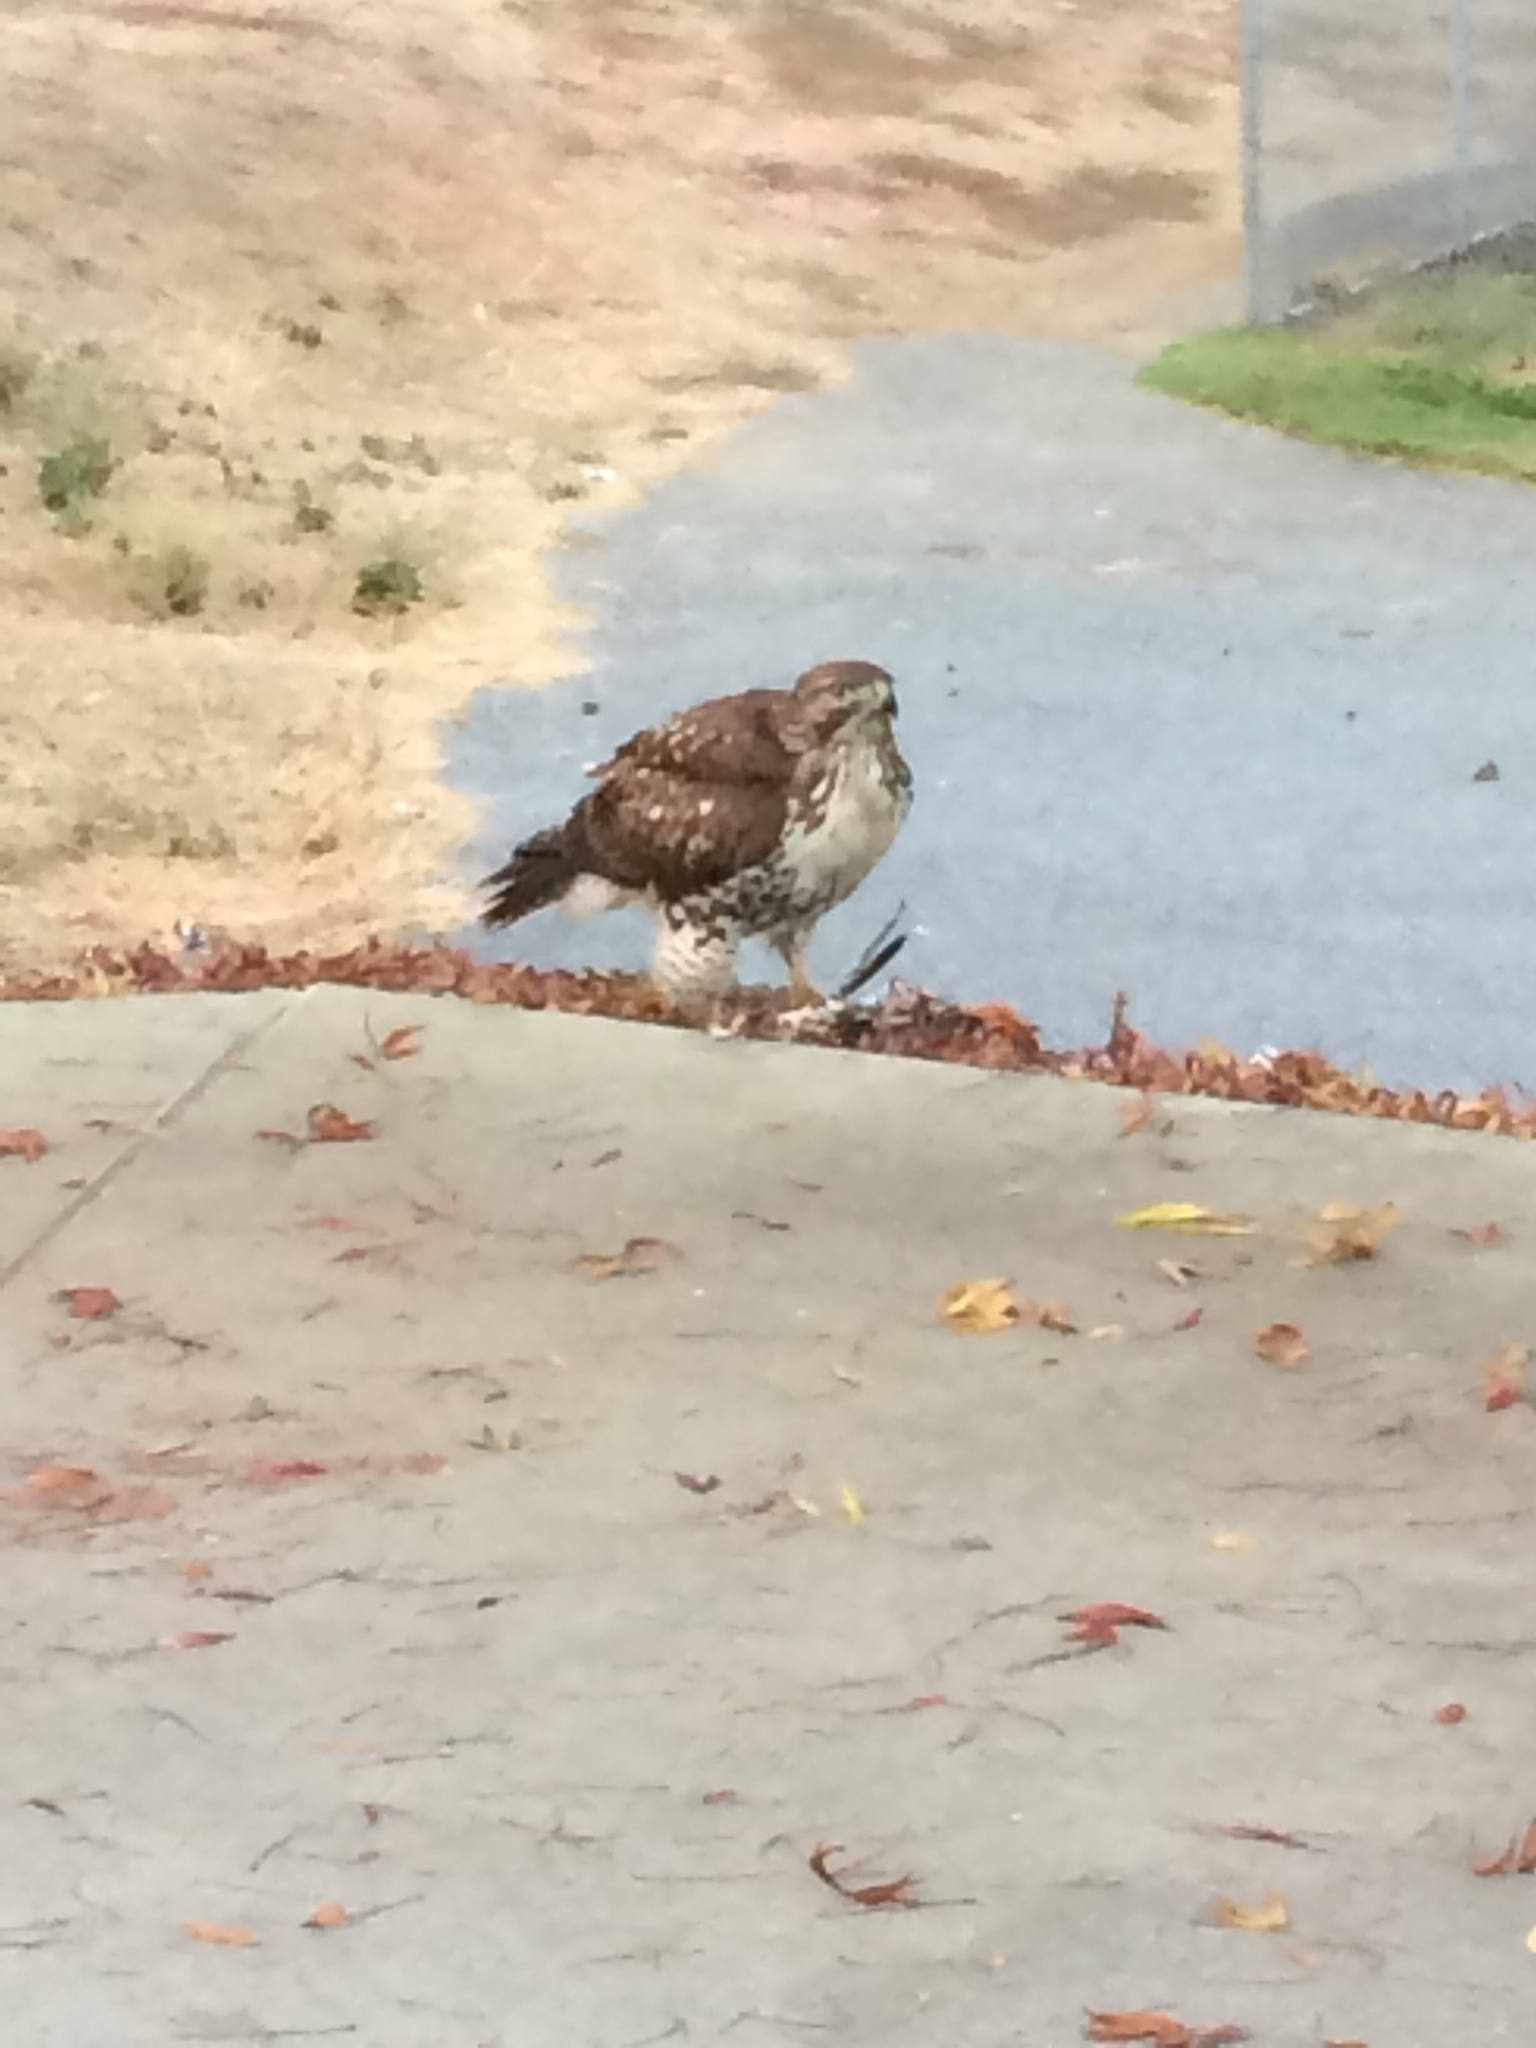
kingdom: Animalia
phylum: Chordata
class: Aves
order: Accipitriformes
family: Accipitridae
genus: Buteo
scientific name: Buteo jamaicensis
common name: Red-tailed hawk
